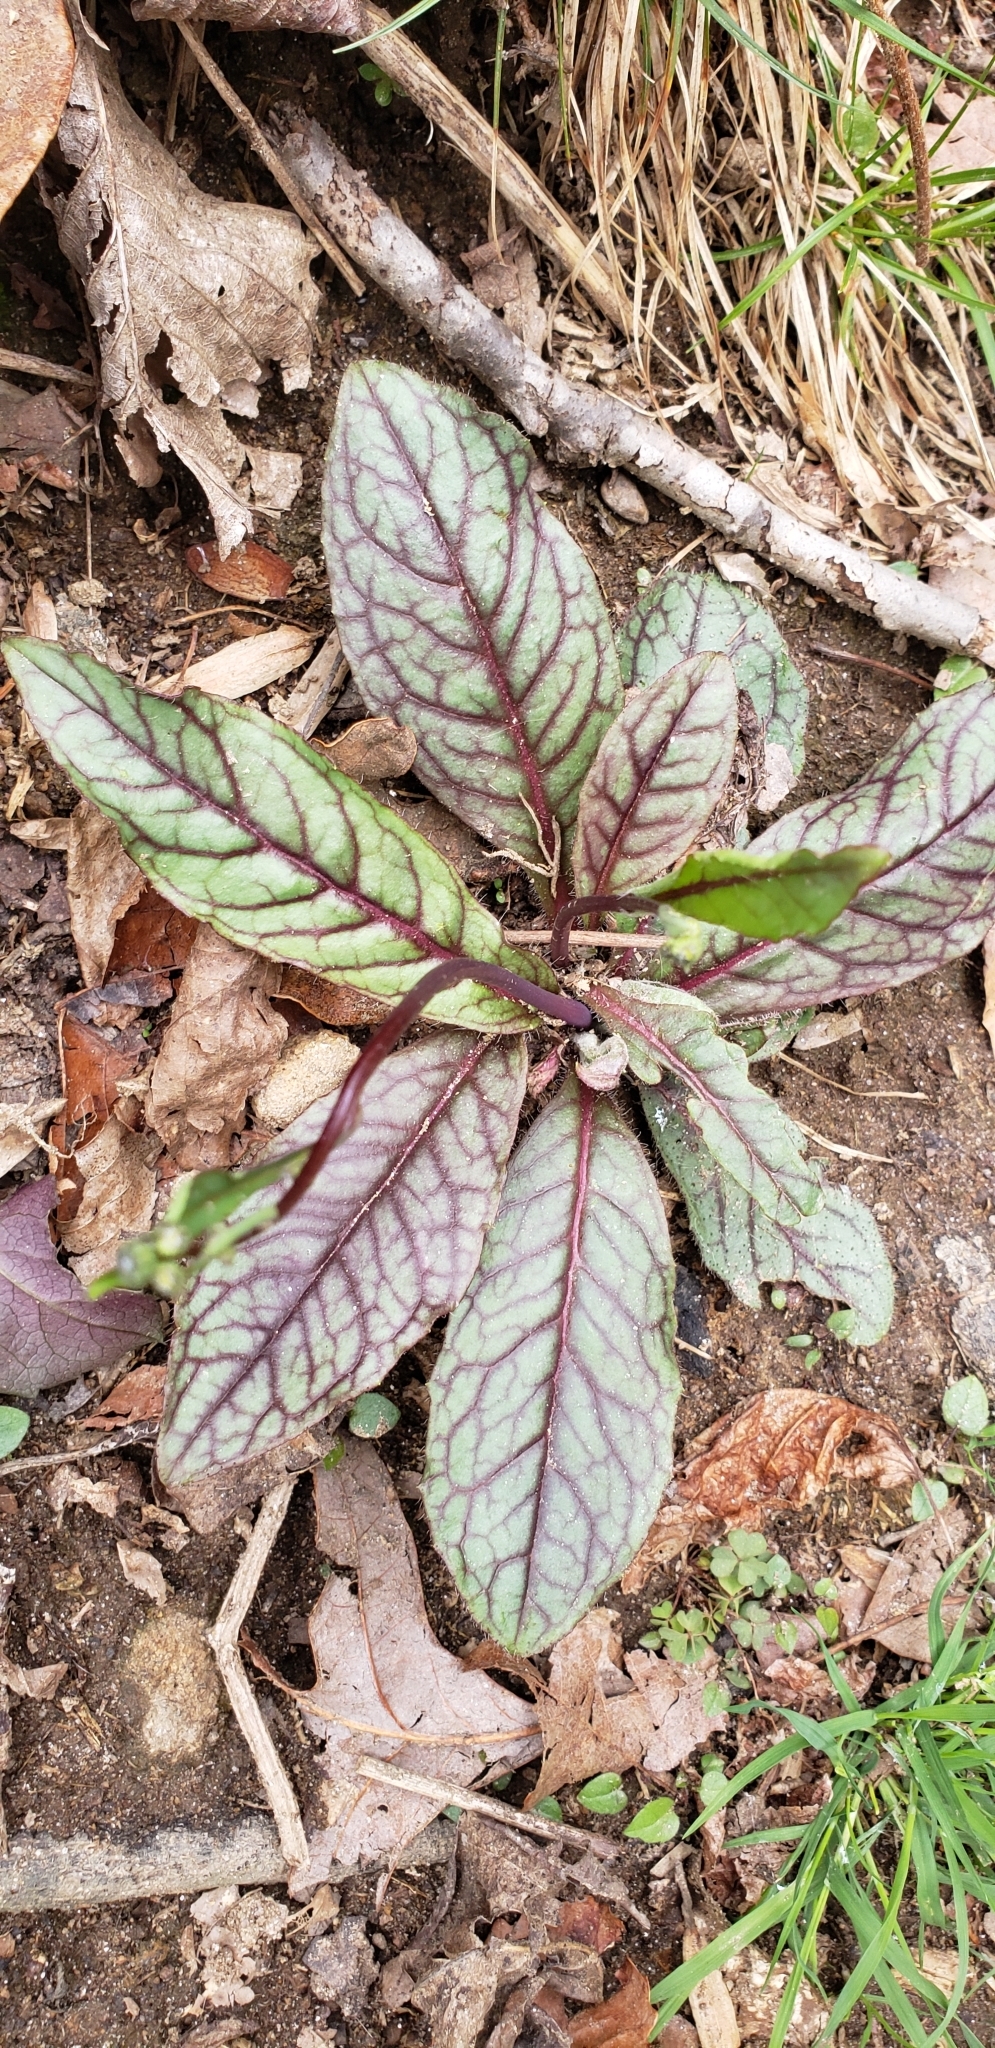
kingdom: Plantae
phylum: Tracheophyta
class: Magnoliopsida
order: Asterales
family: Asteraceae
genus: Hieracium
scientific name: Hieracium venosum
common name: Rattlesnake hawkweed
